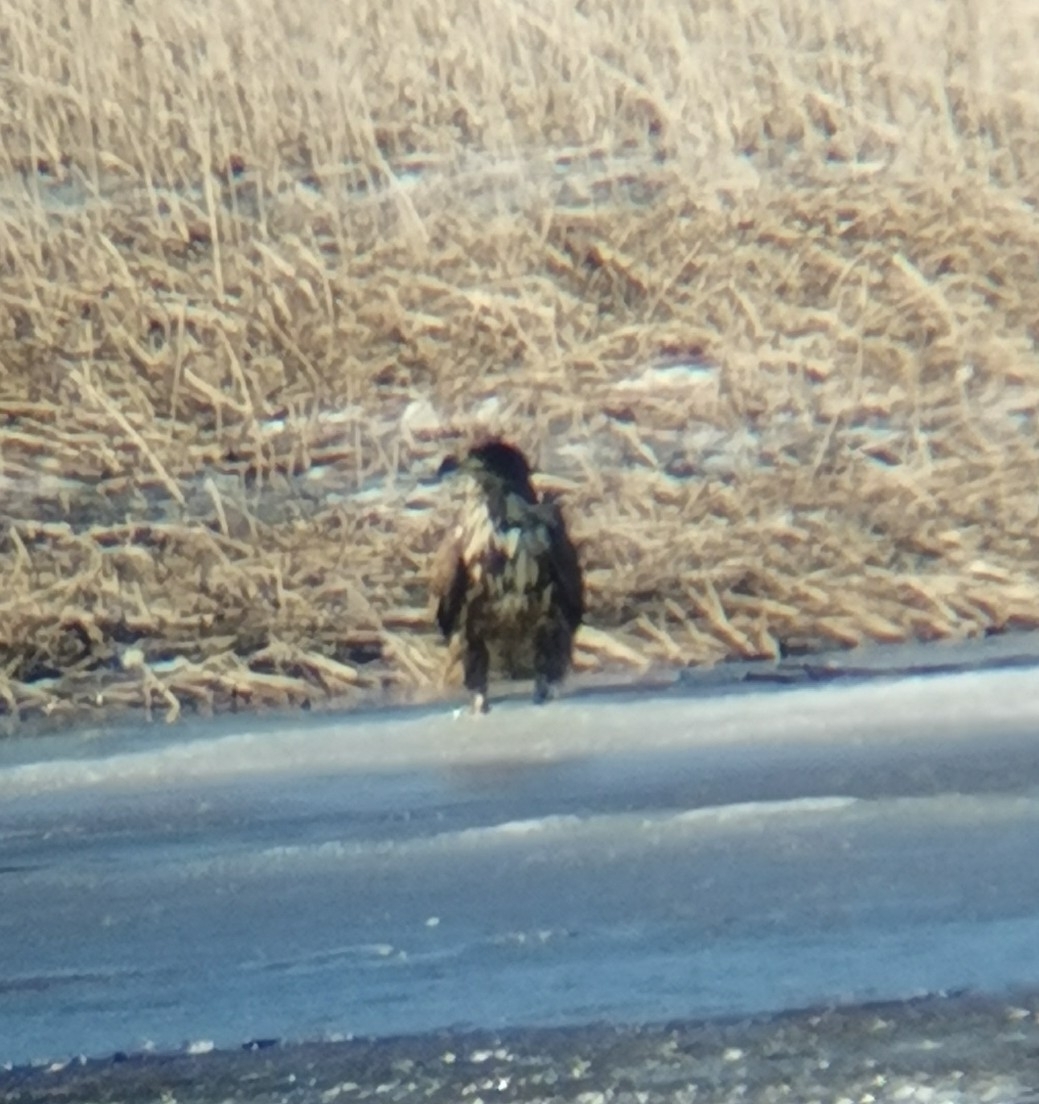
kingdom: Animalia
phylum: Chordata
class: Aves
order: Accipitriformes
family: Accipitridae
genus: Haliaeetus
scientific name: Haliaeetus albicilla
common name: White-tailed eagle
